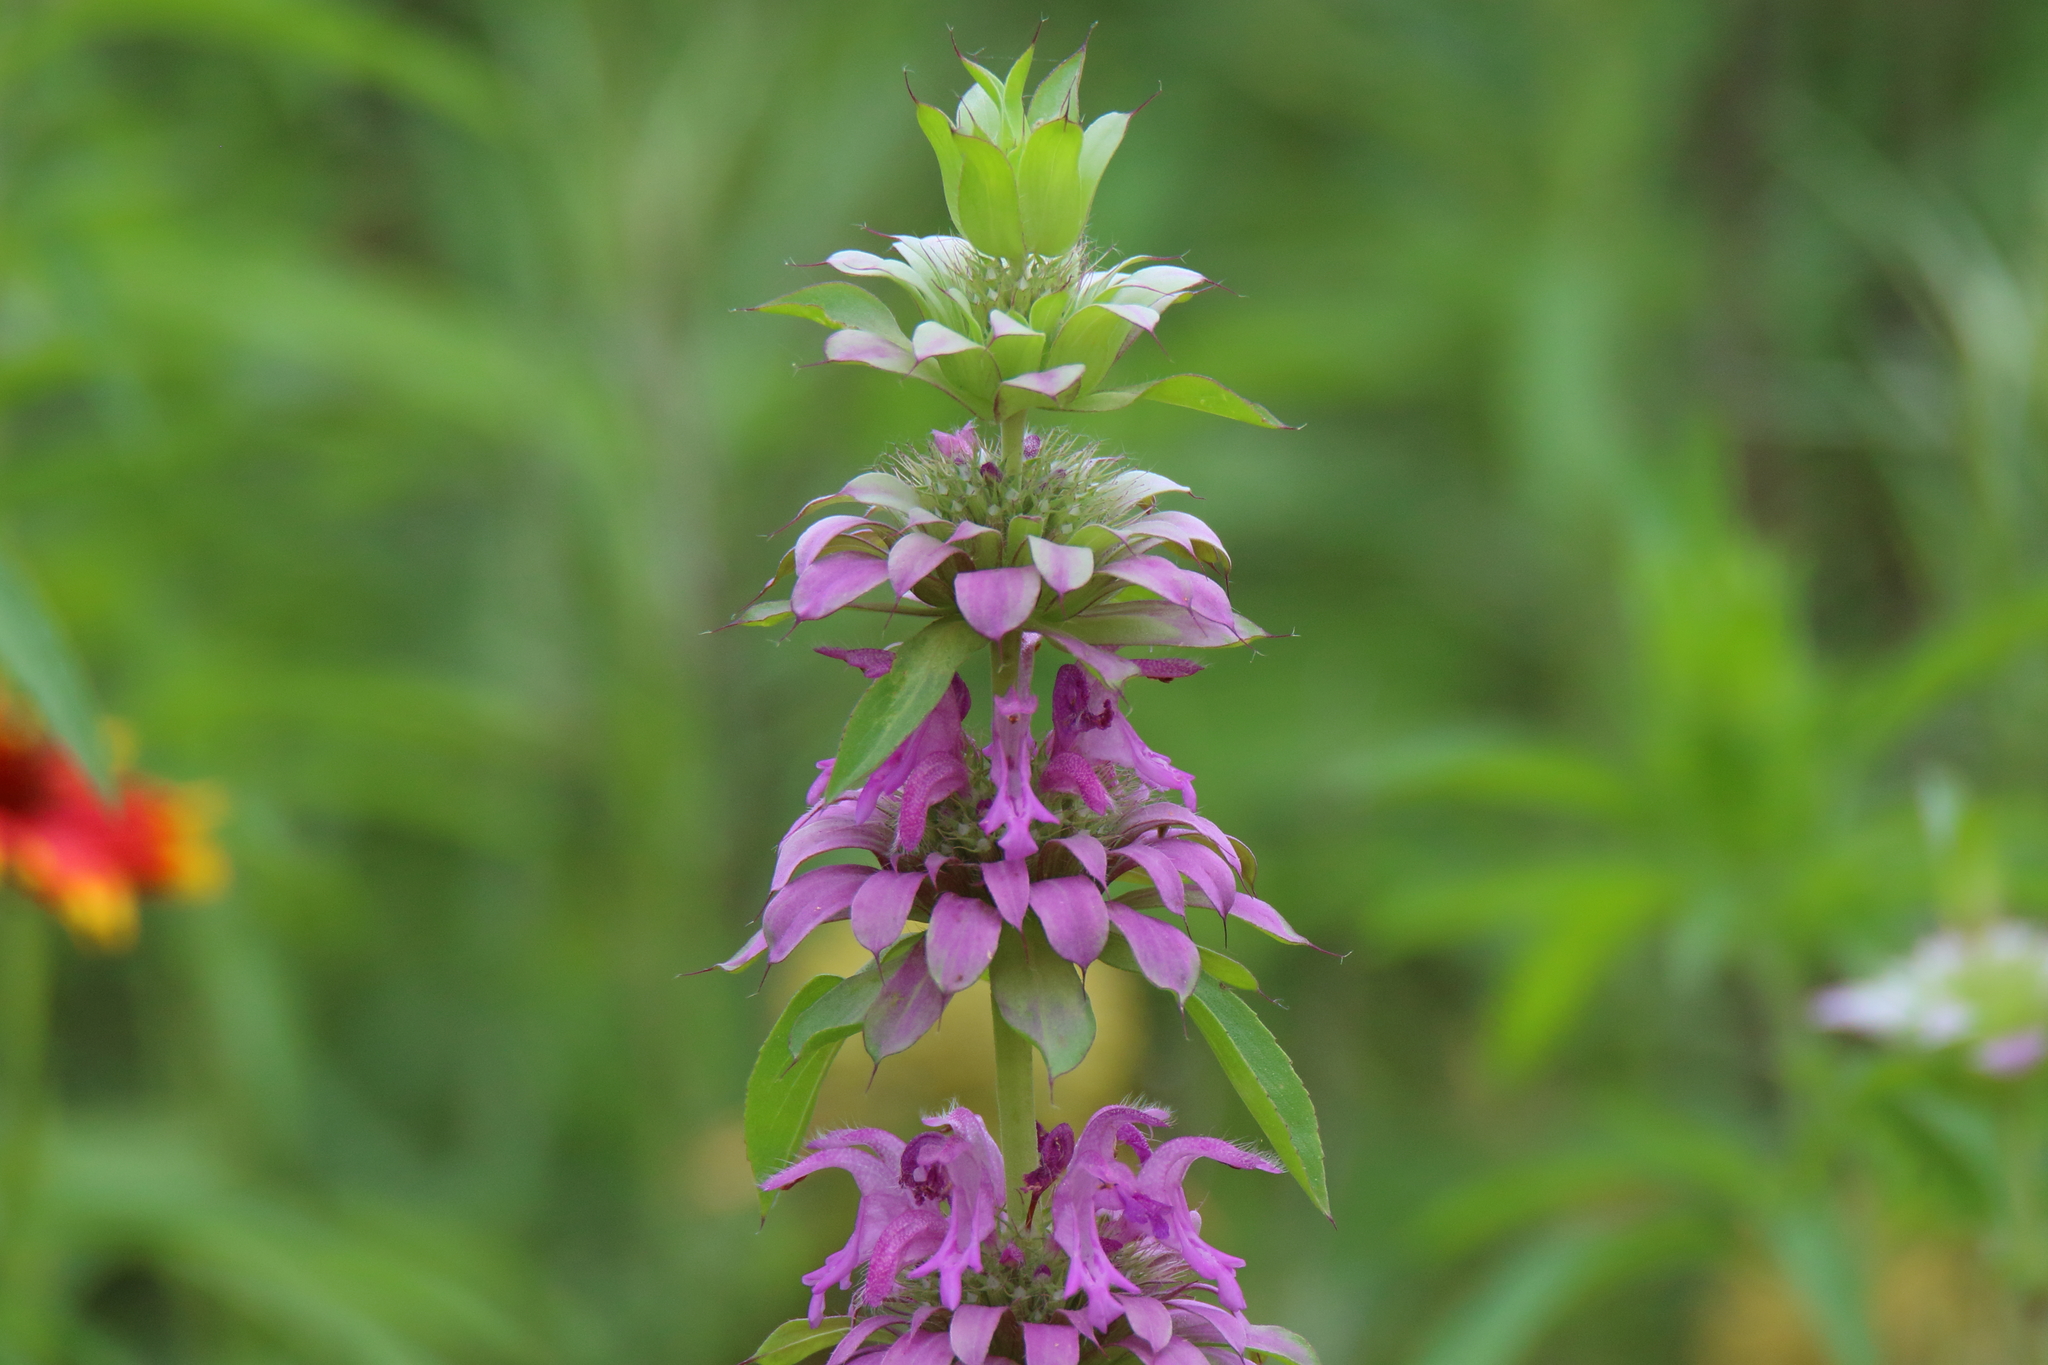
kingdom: Plantae
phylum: Tracheophyta
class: Magnoliopsida
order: Lamiales
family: Lamiaceae
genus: Monarda
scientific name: Monarda citriodora
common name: Lemon beebalm
